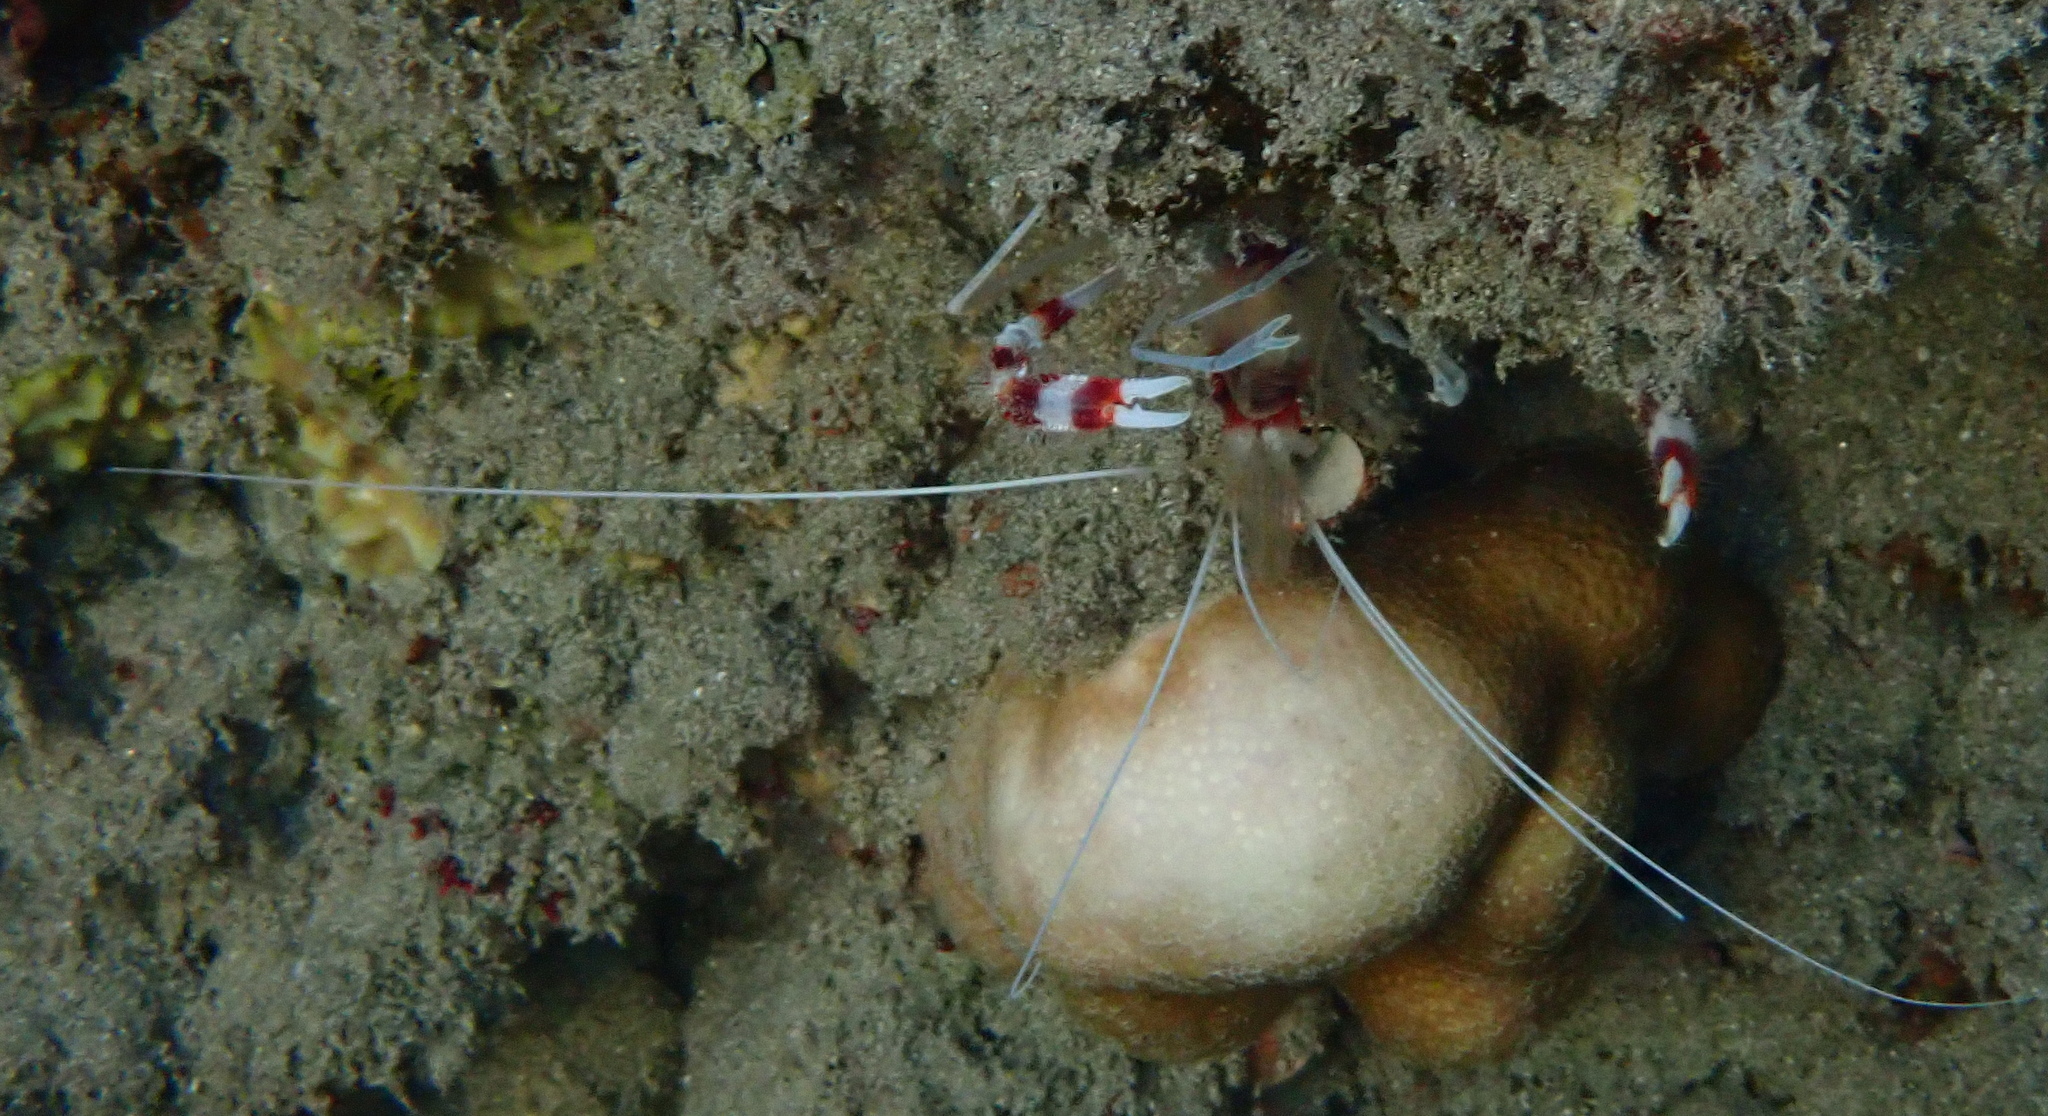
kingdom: Animalia
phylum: Arthropoda
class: Malacostraca
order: Decapoda
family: Stenopodidae
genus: Stenopus
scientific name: Stenopus hispidus
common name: Banded coral shrimp
